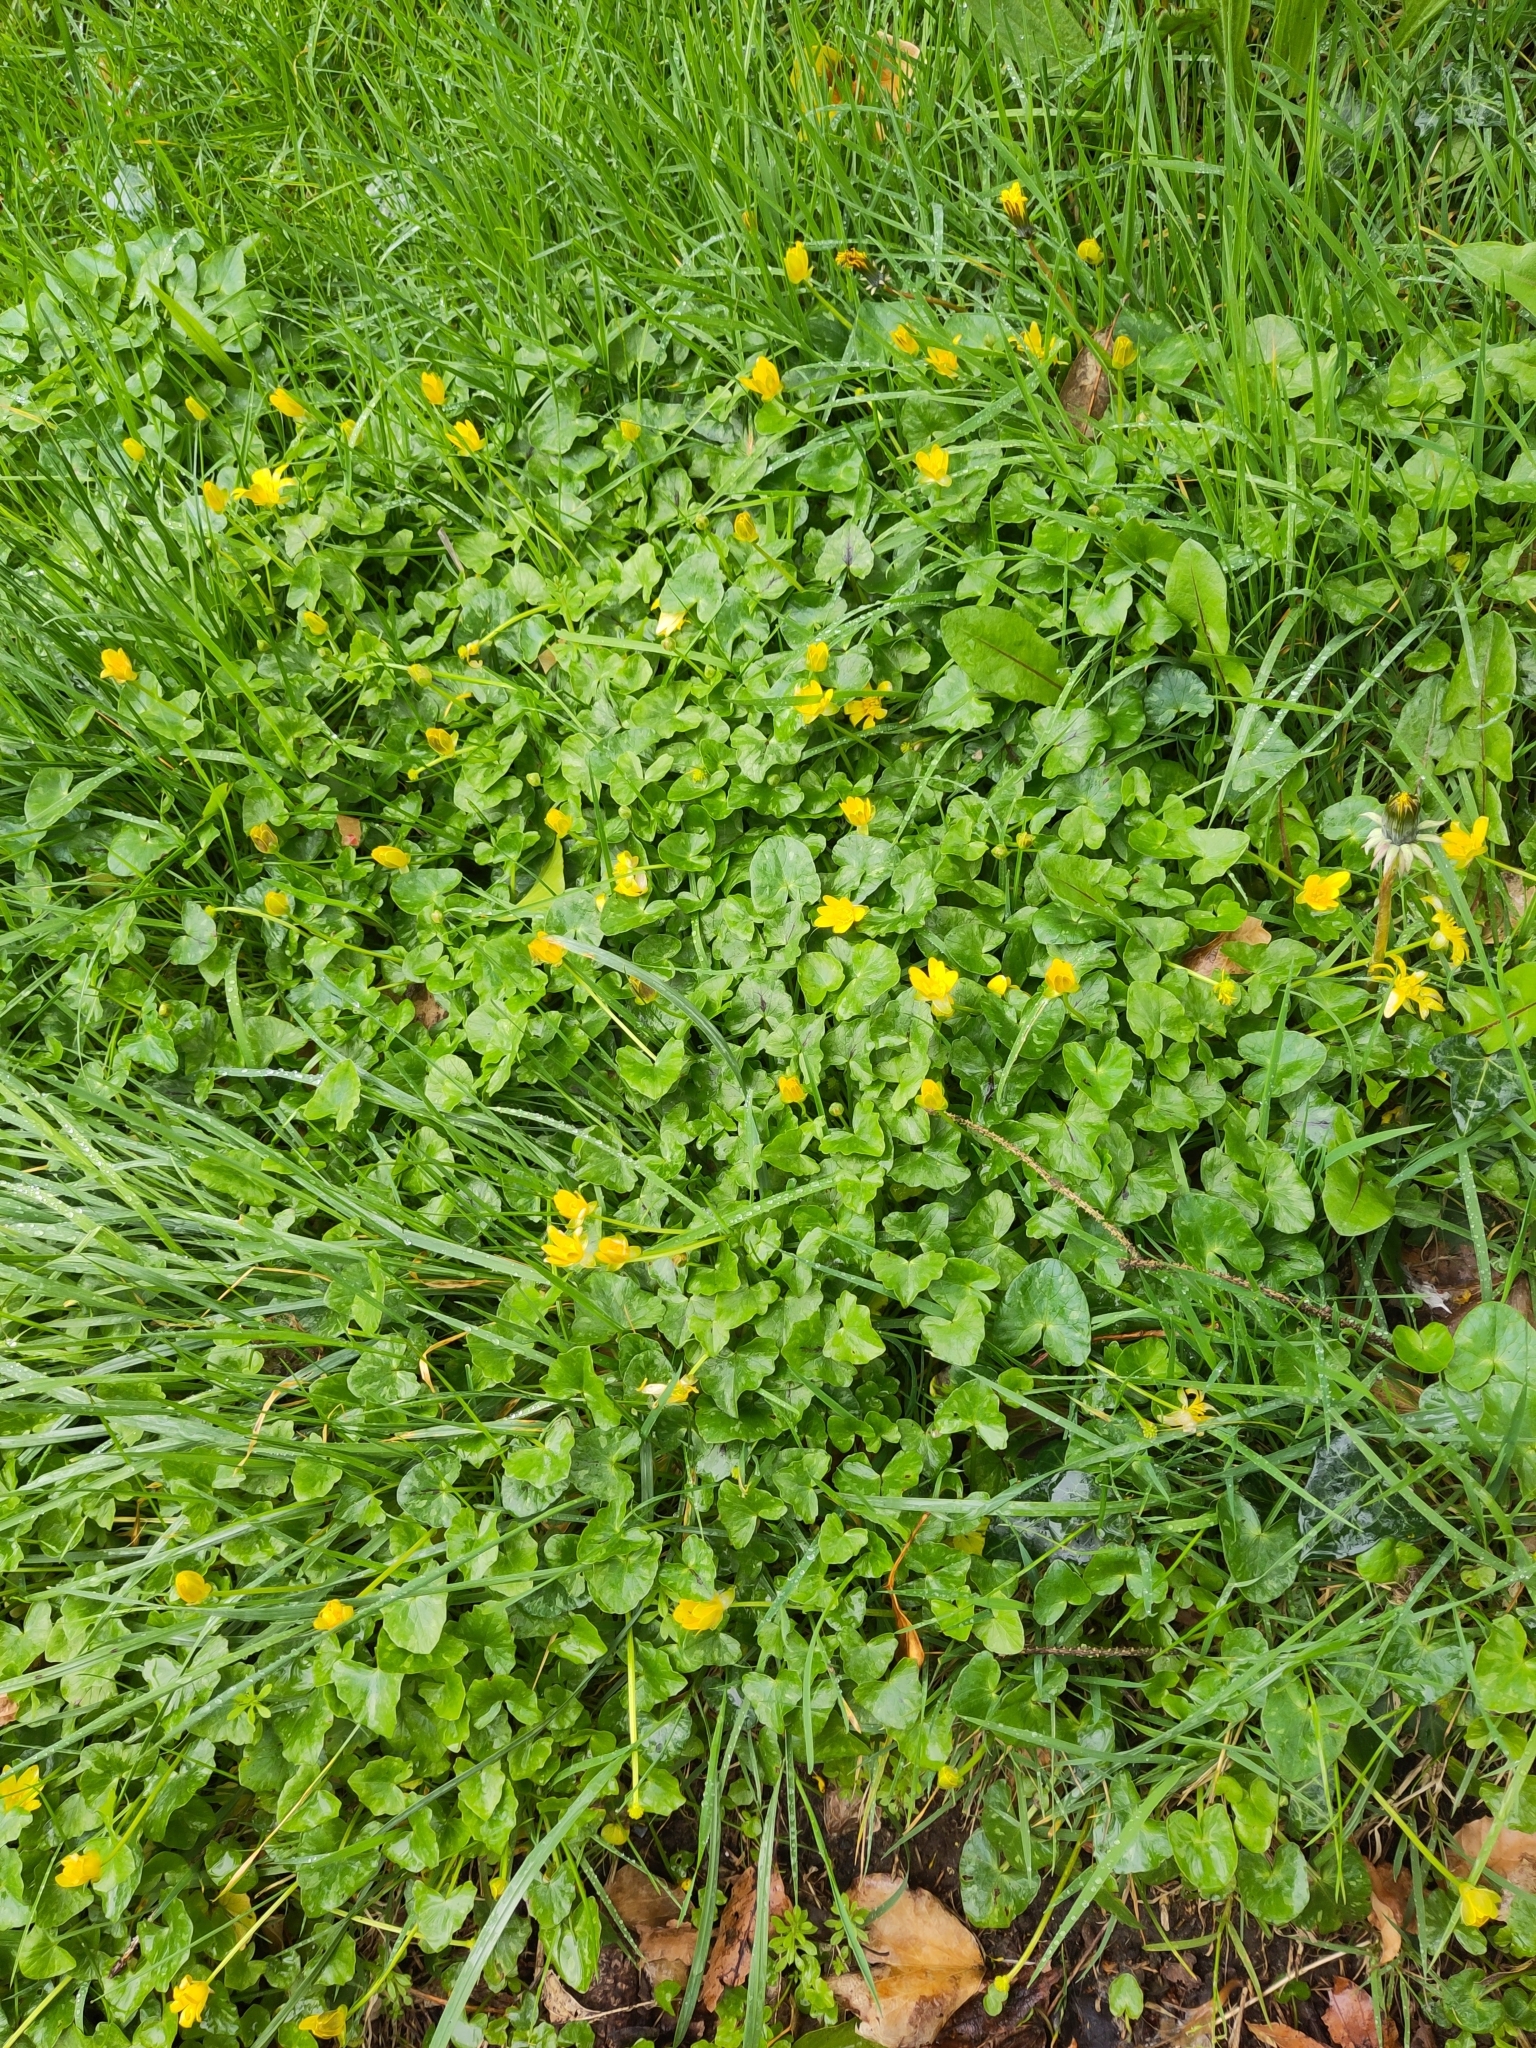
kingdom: Plantae
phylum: Tracheophyta
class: Magnoliopsida
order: Ranunculales
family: Ranunculaceae
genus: Ficaria
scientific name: Ficaria verna
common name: Lesser celandine
